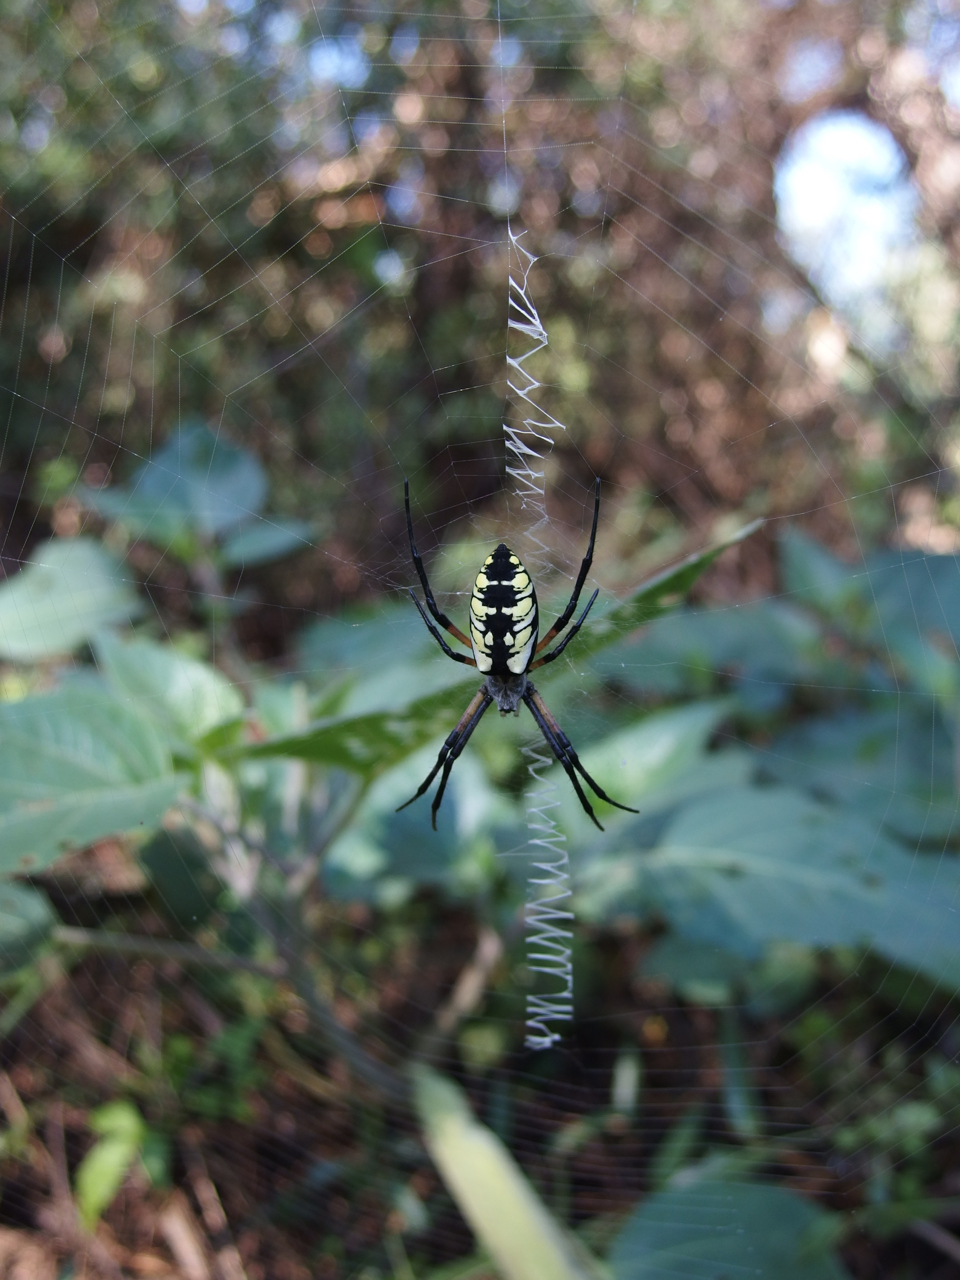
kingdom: Animalia
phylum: Arthropoda
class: Arachnida
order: Araneae
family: Araneidae
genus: Argiope
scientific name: Argiope aurantia
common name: Orb weavers
